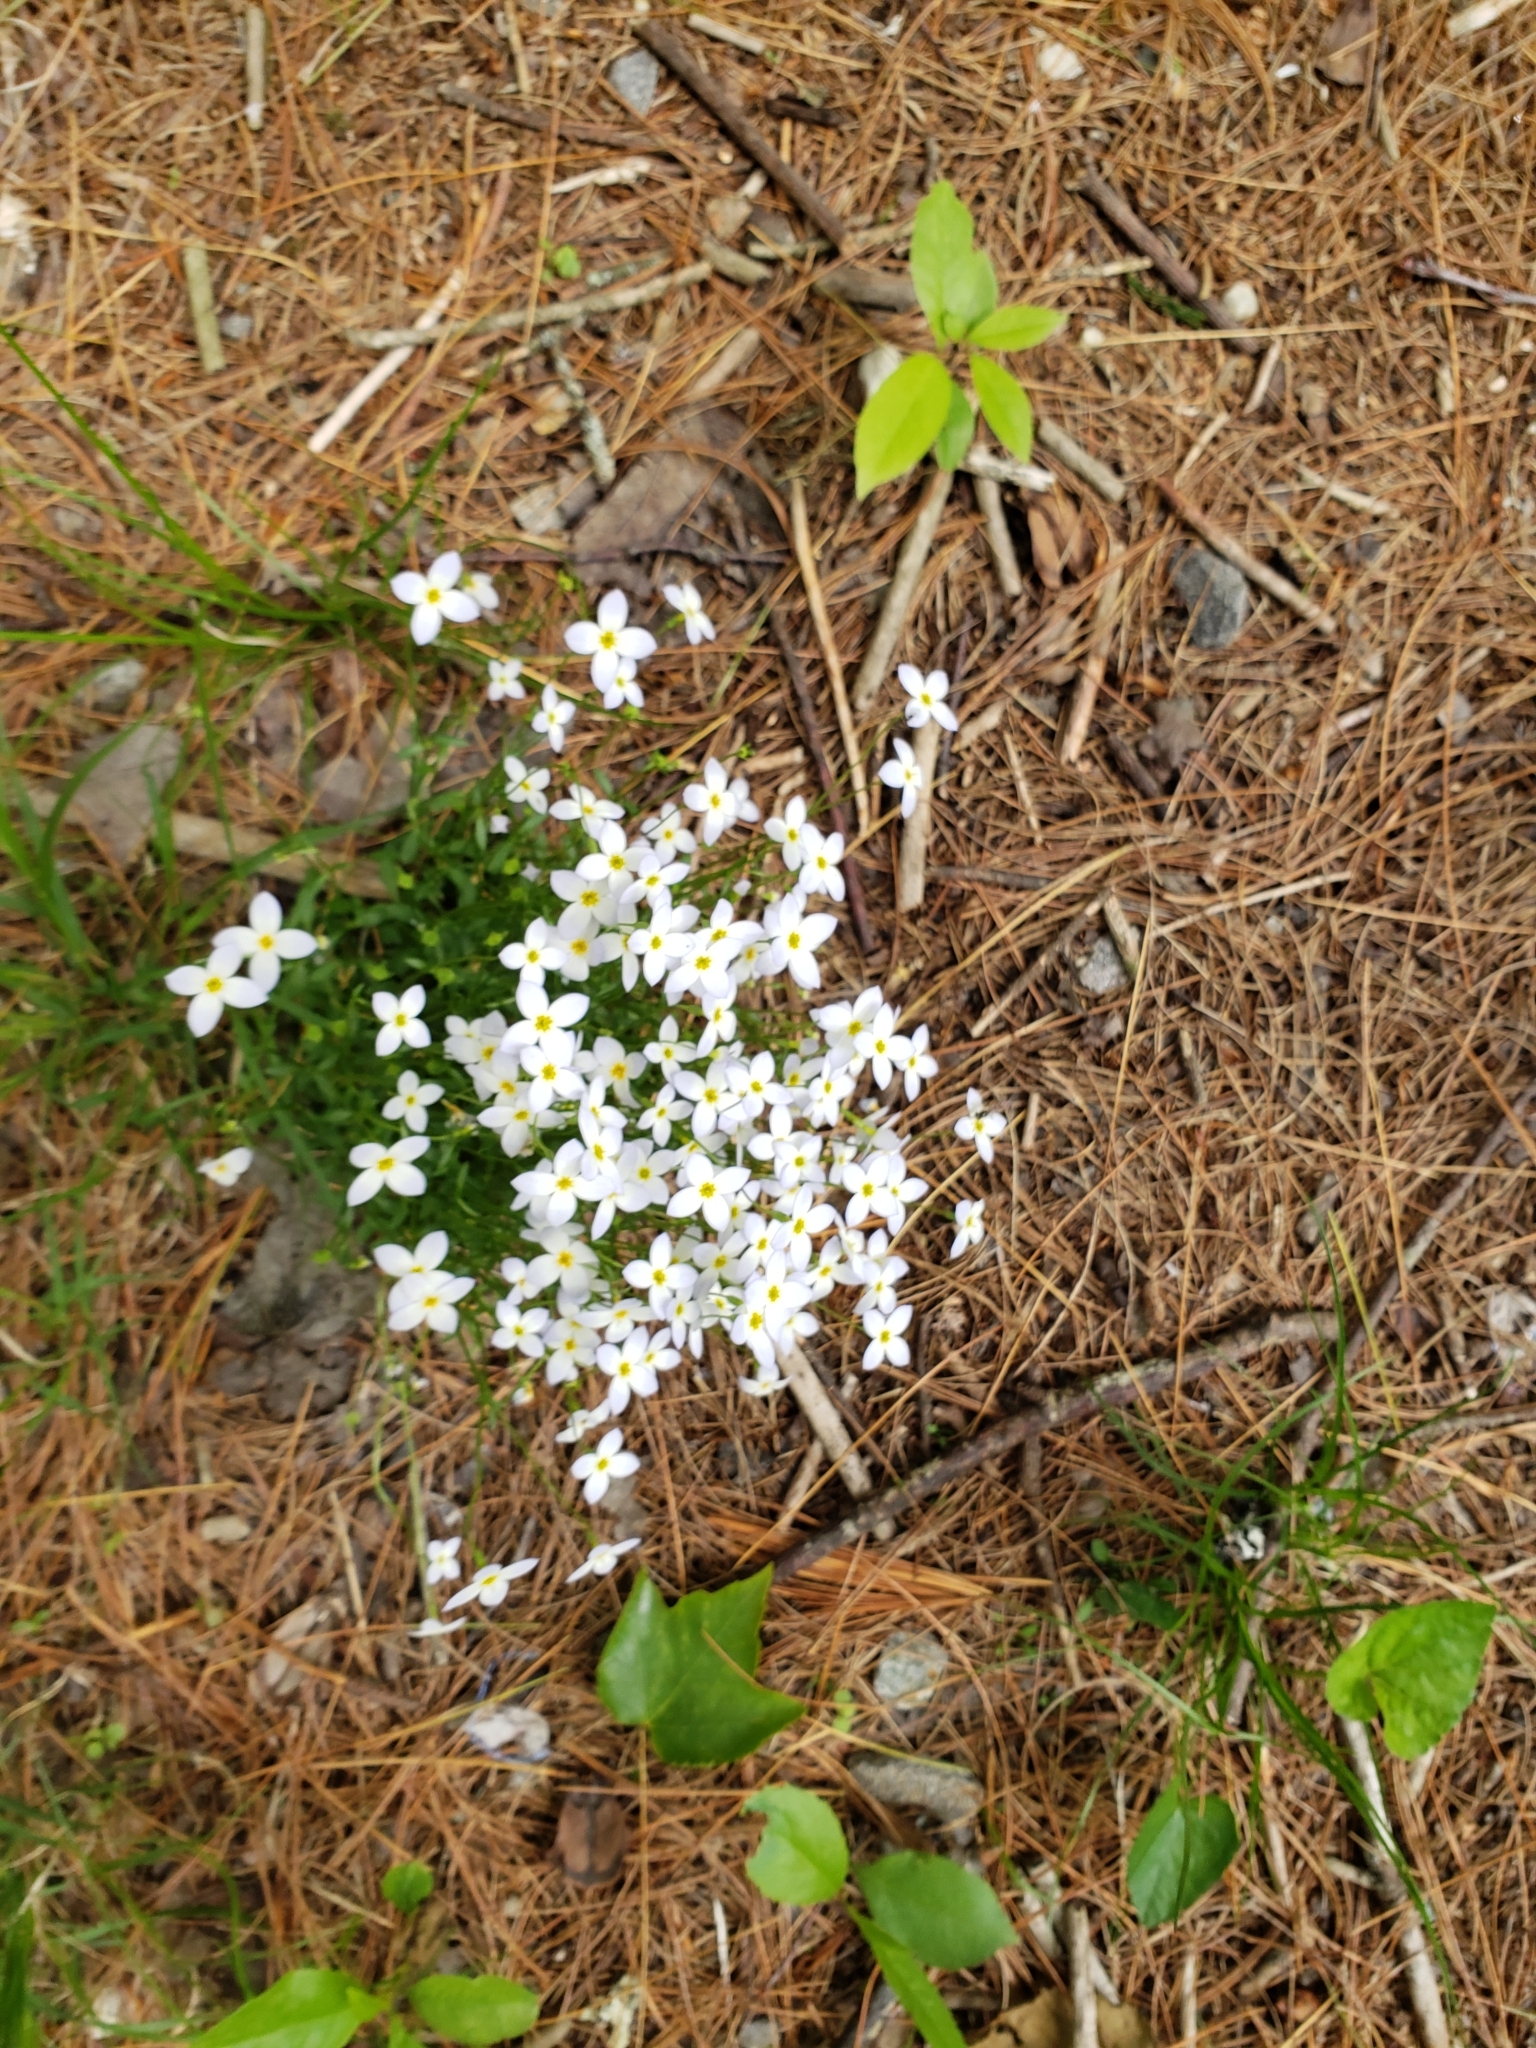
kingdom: Plantae
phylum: Tracheophyta
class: Magnoliopsida
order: Gentianales
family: Rubiaceae
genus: Houstonia
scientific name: Houstonia caerulea
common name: Bluets
